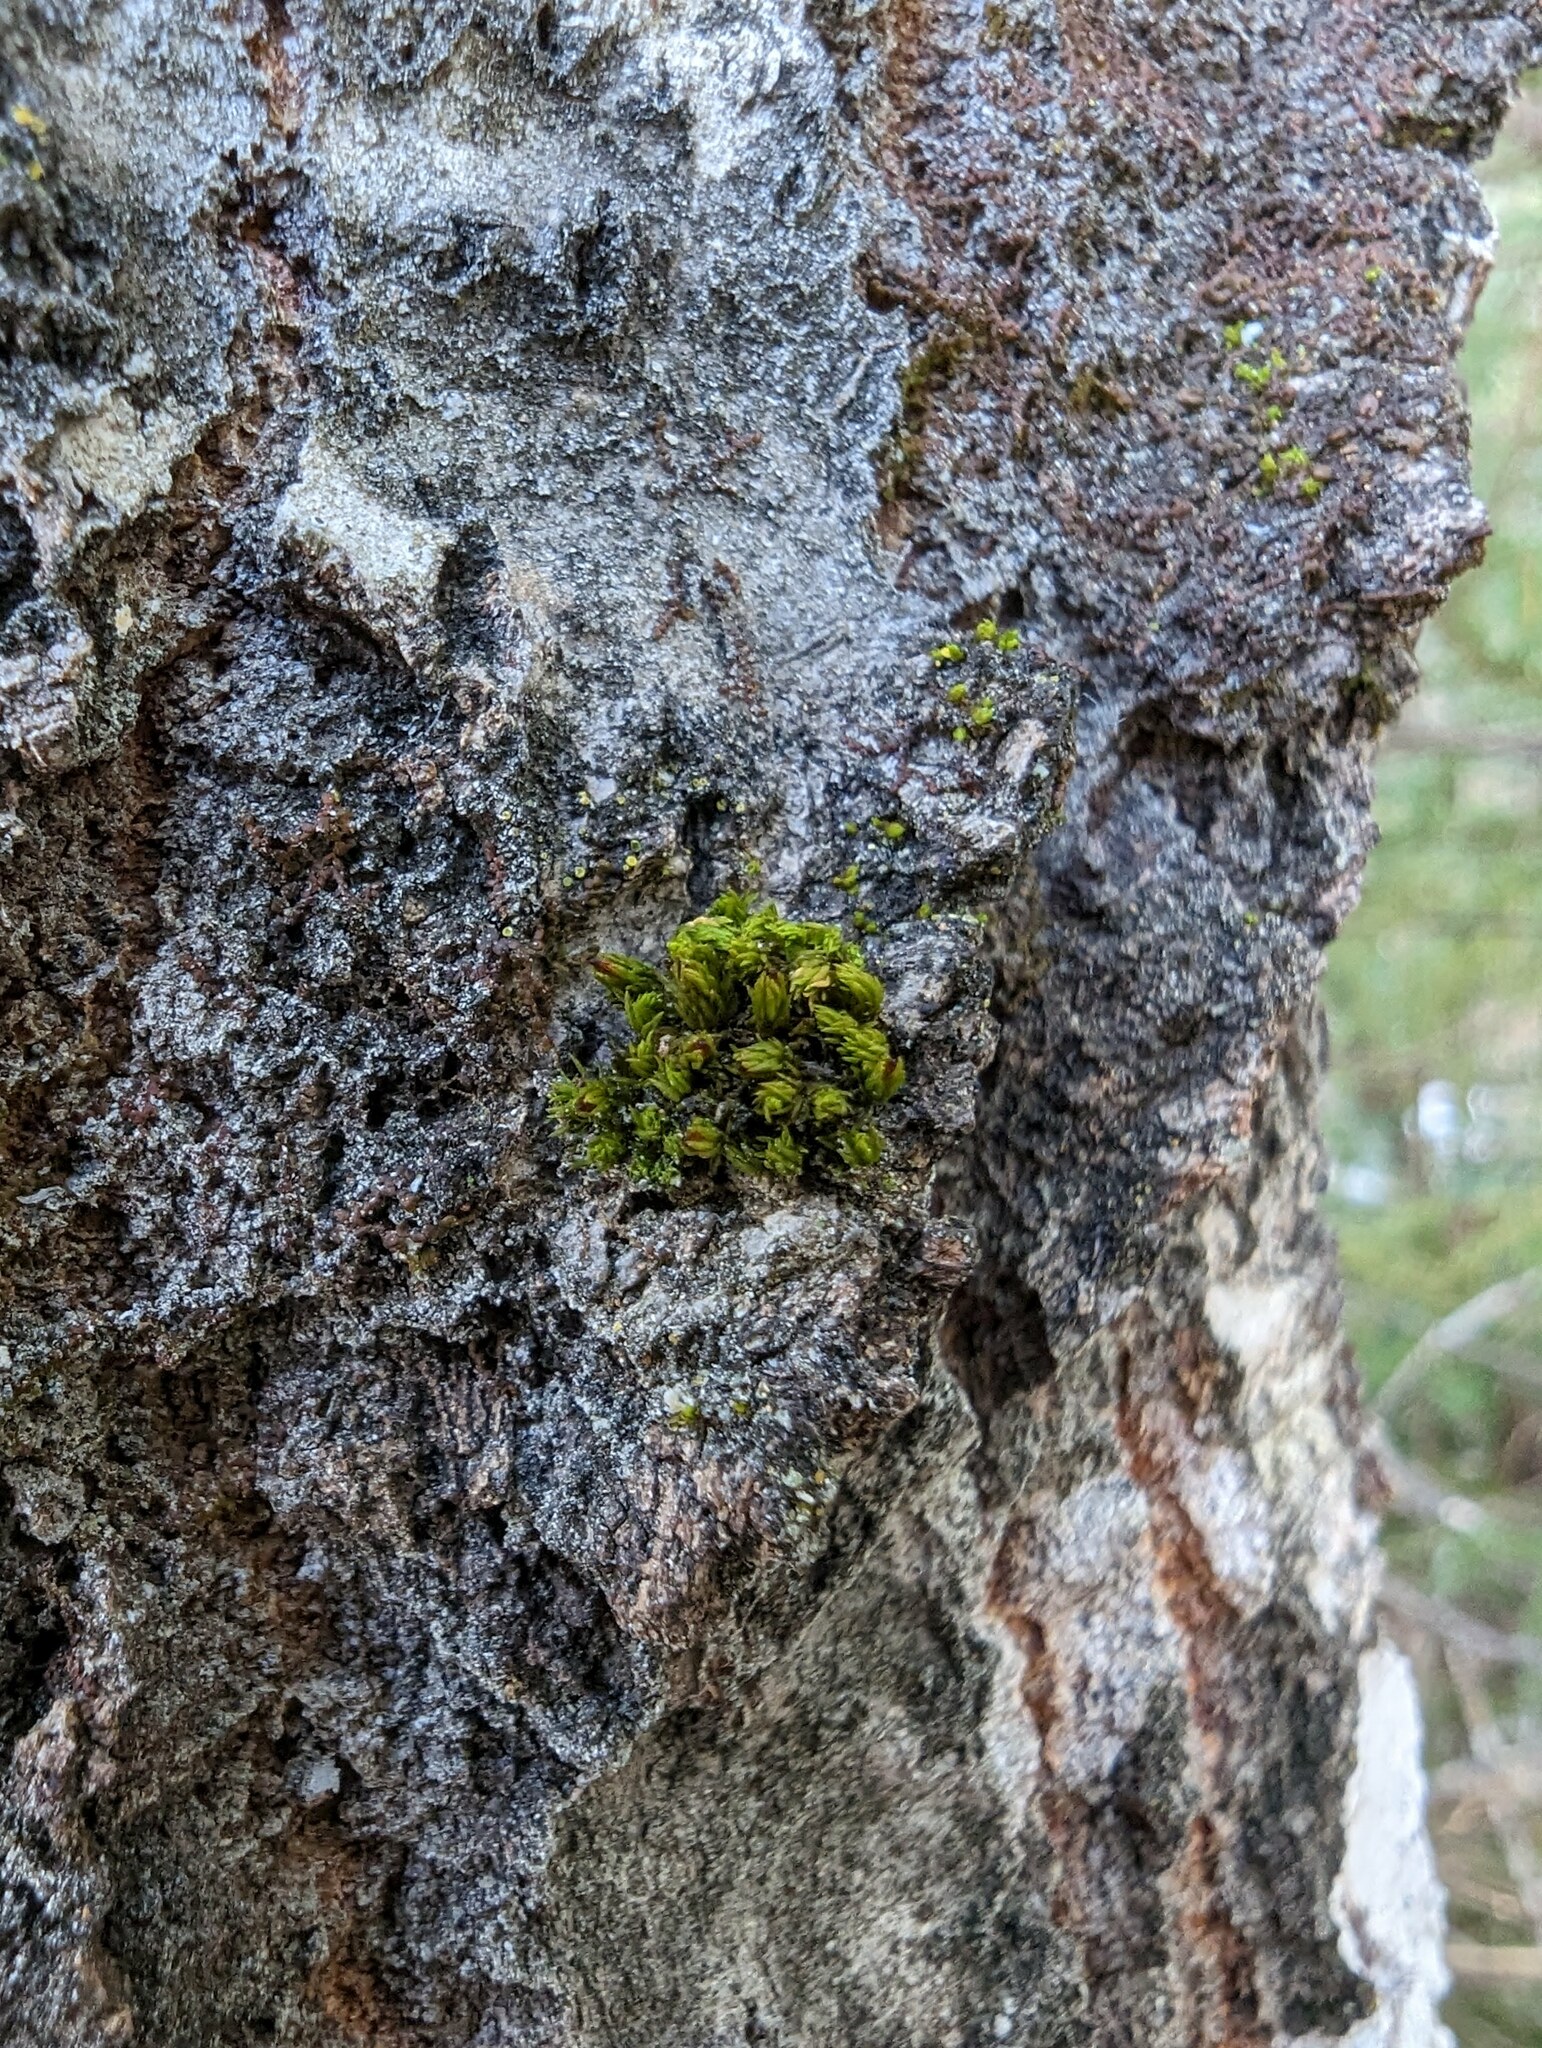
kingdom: Plantae
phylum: Bryophyta
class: Bryopsida
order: Orthotrichales
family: Orthotrichaceae
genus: Ulota
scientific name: Ulota crispa
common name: Crisped pincushion moss
